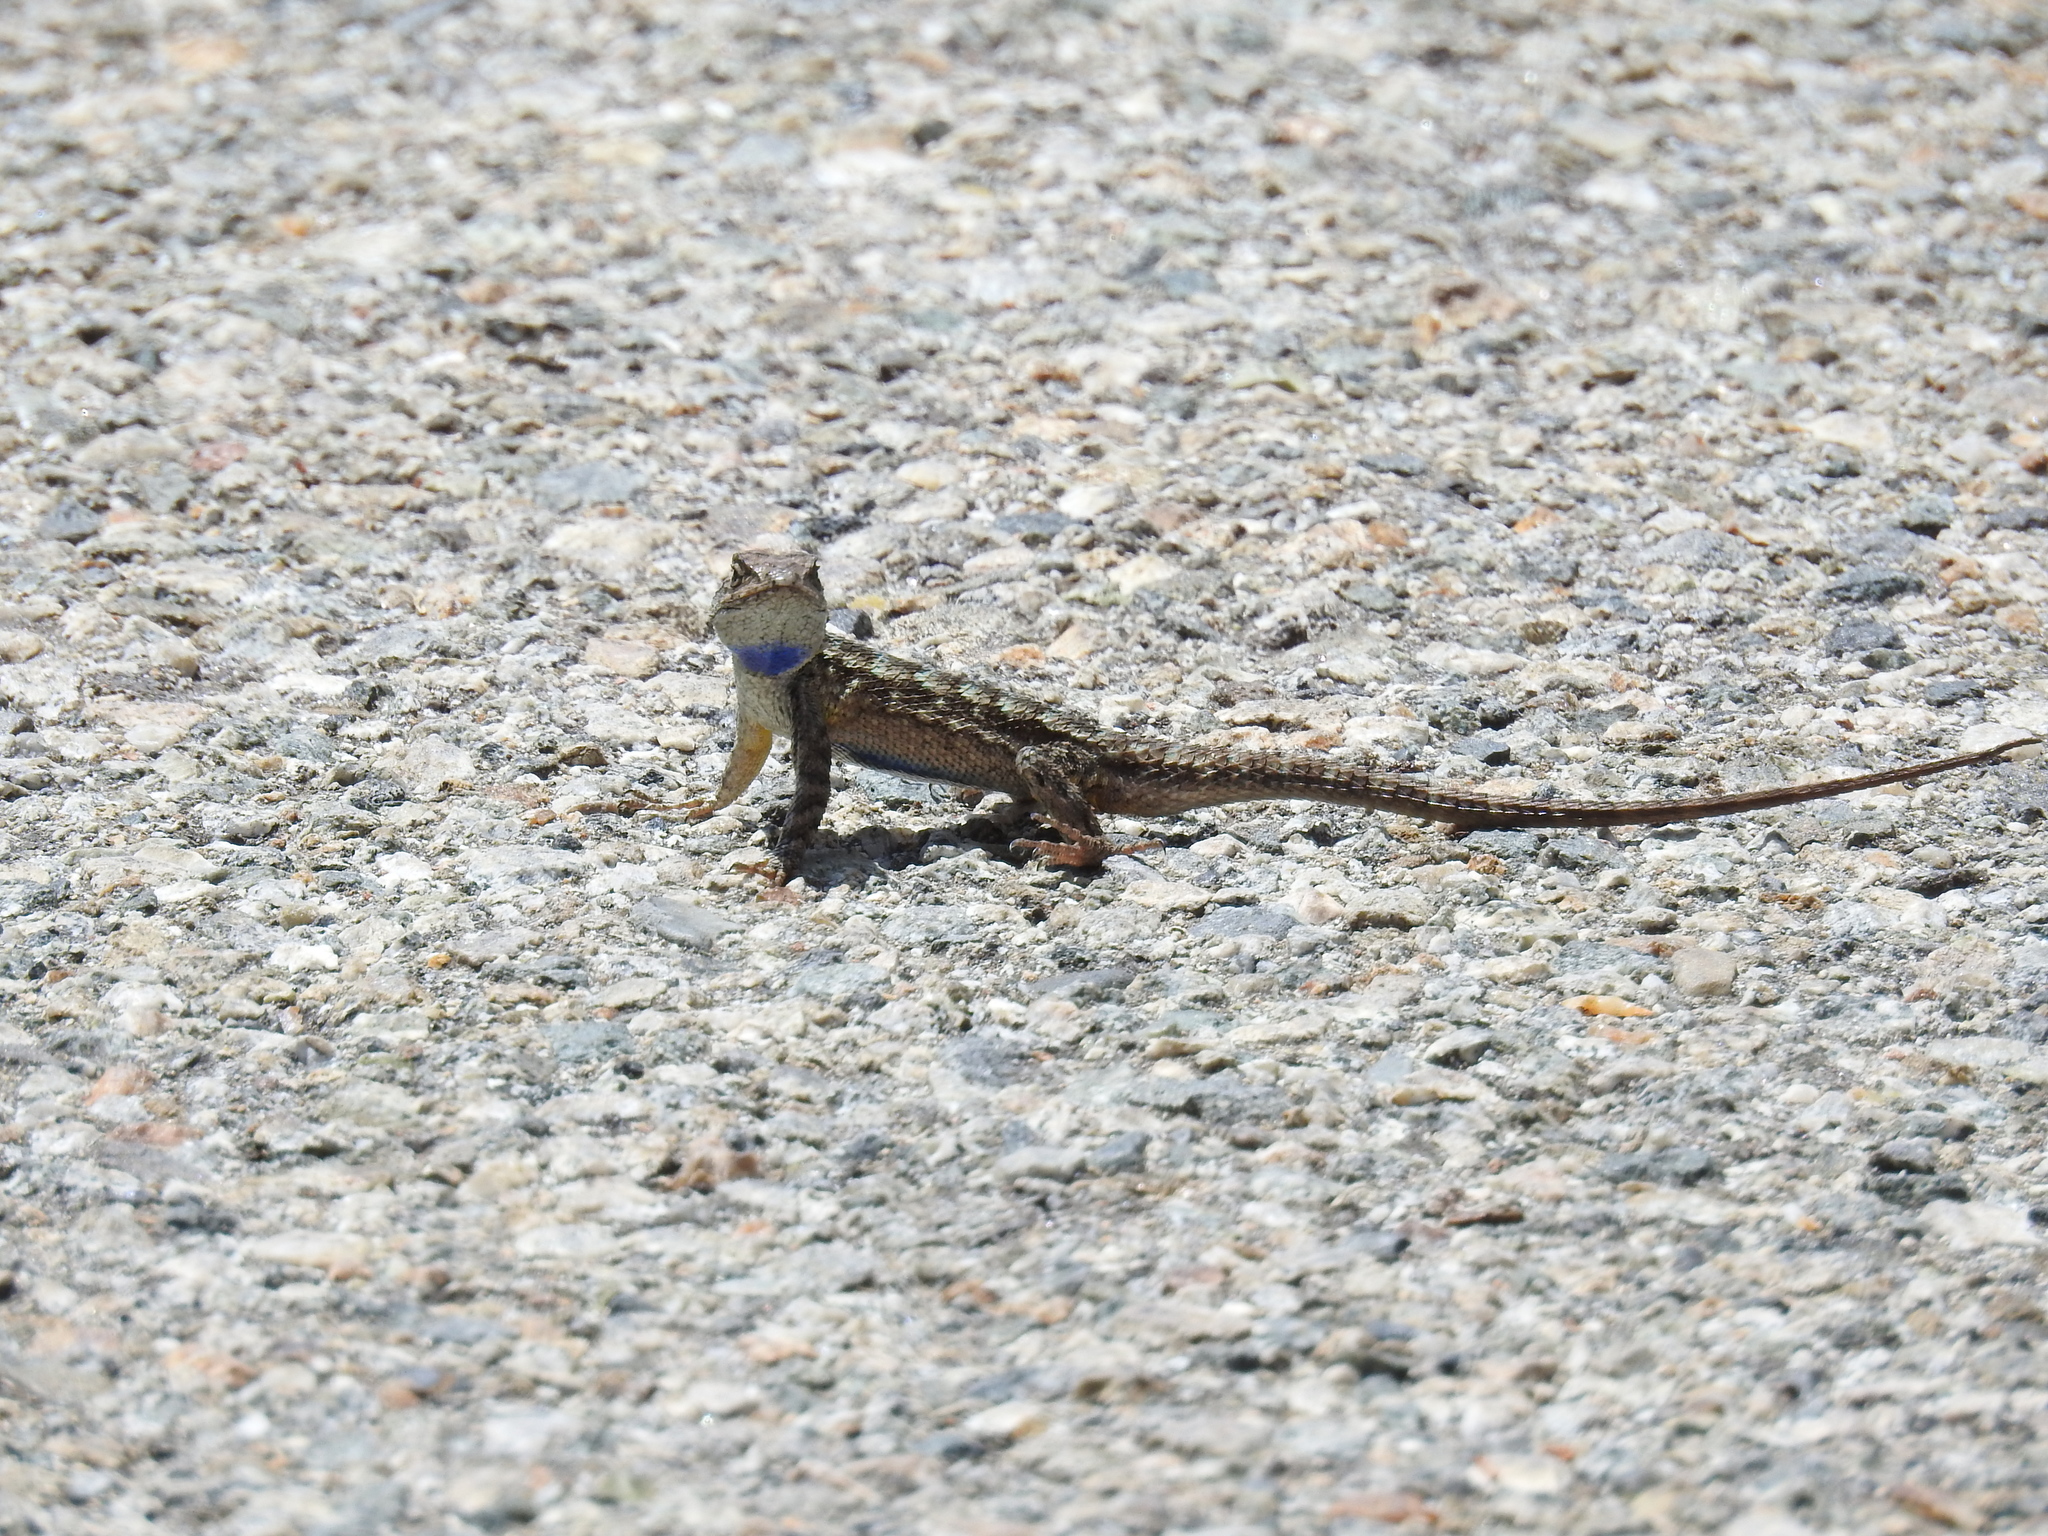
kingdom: Animalia
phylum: Chordata
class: Squamata
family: Phrynosomatidae
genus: Sceloporus
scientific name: Sceloporus occidentalis
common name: Western fence lizard
